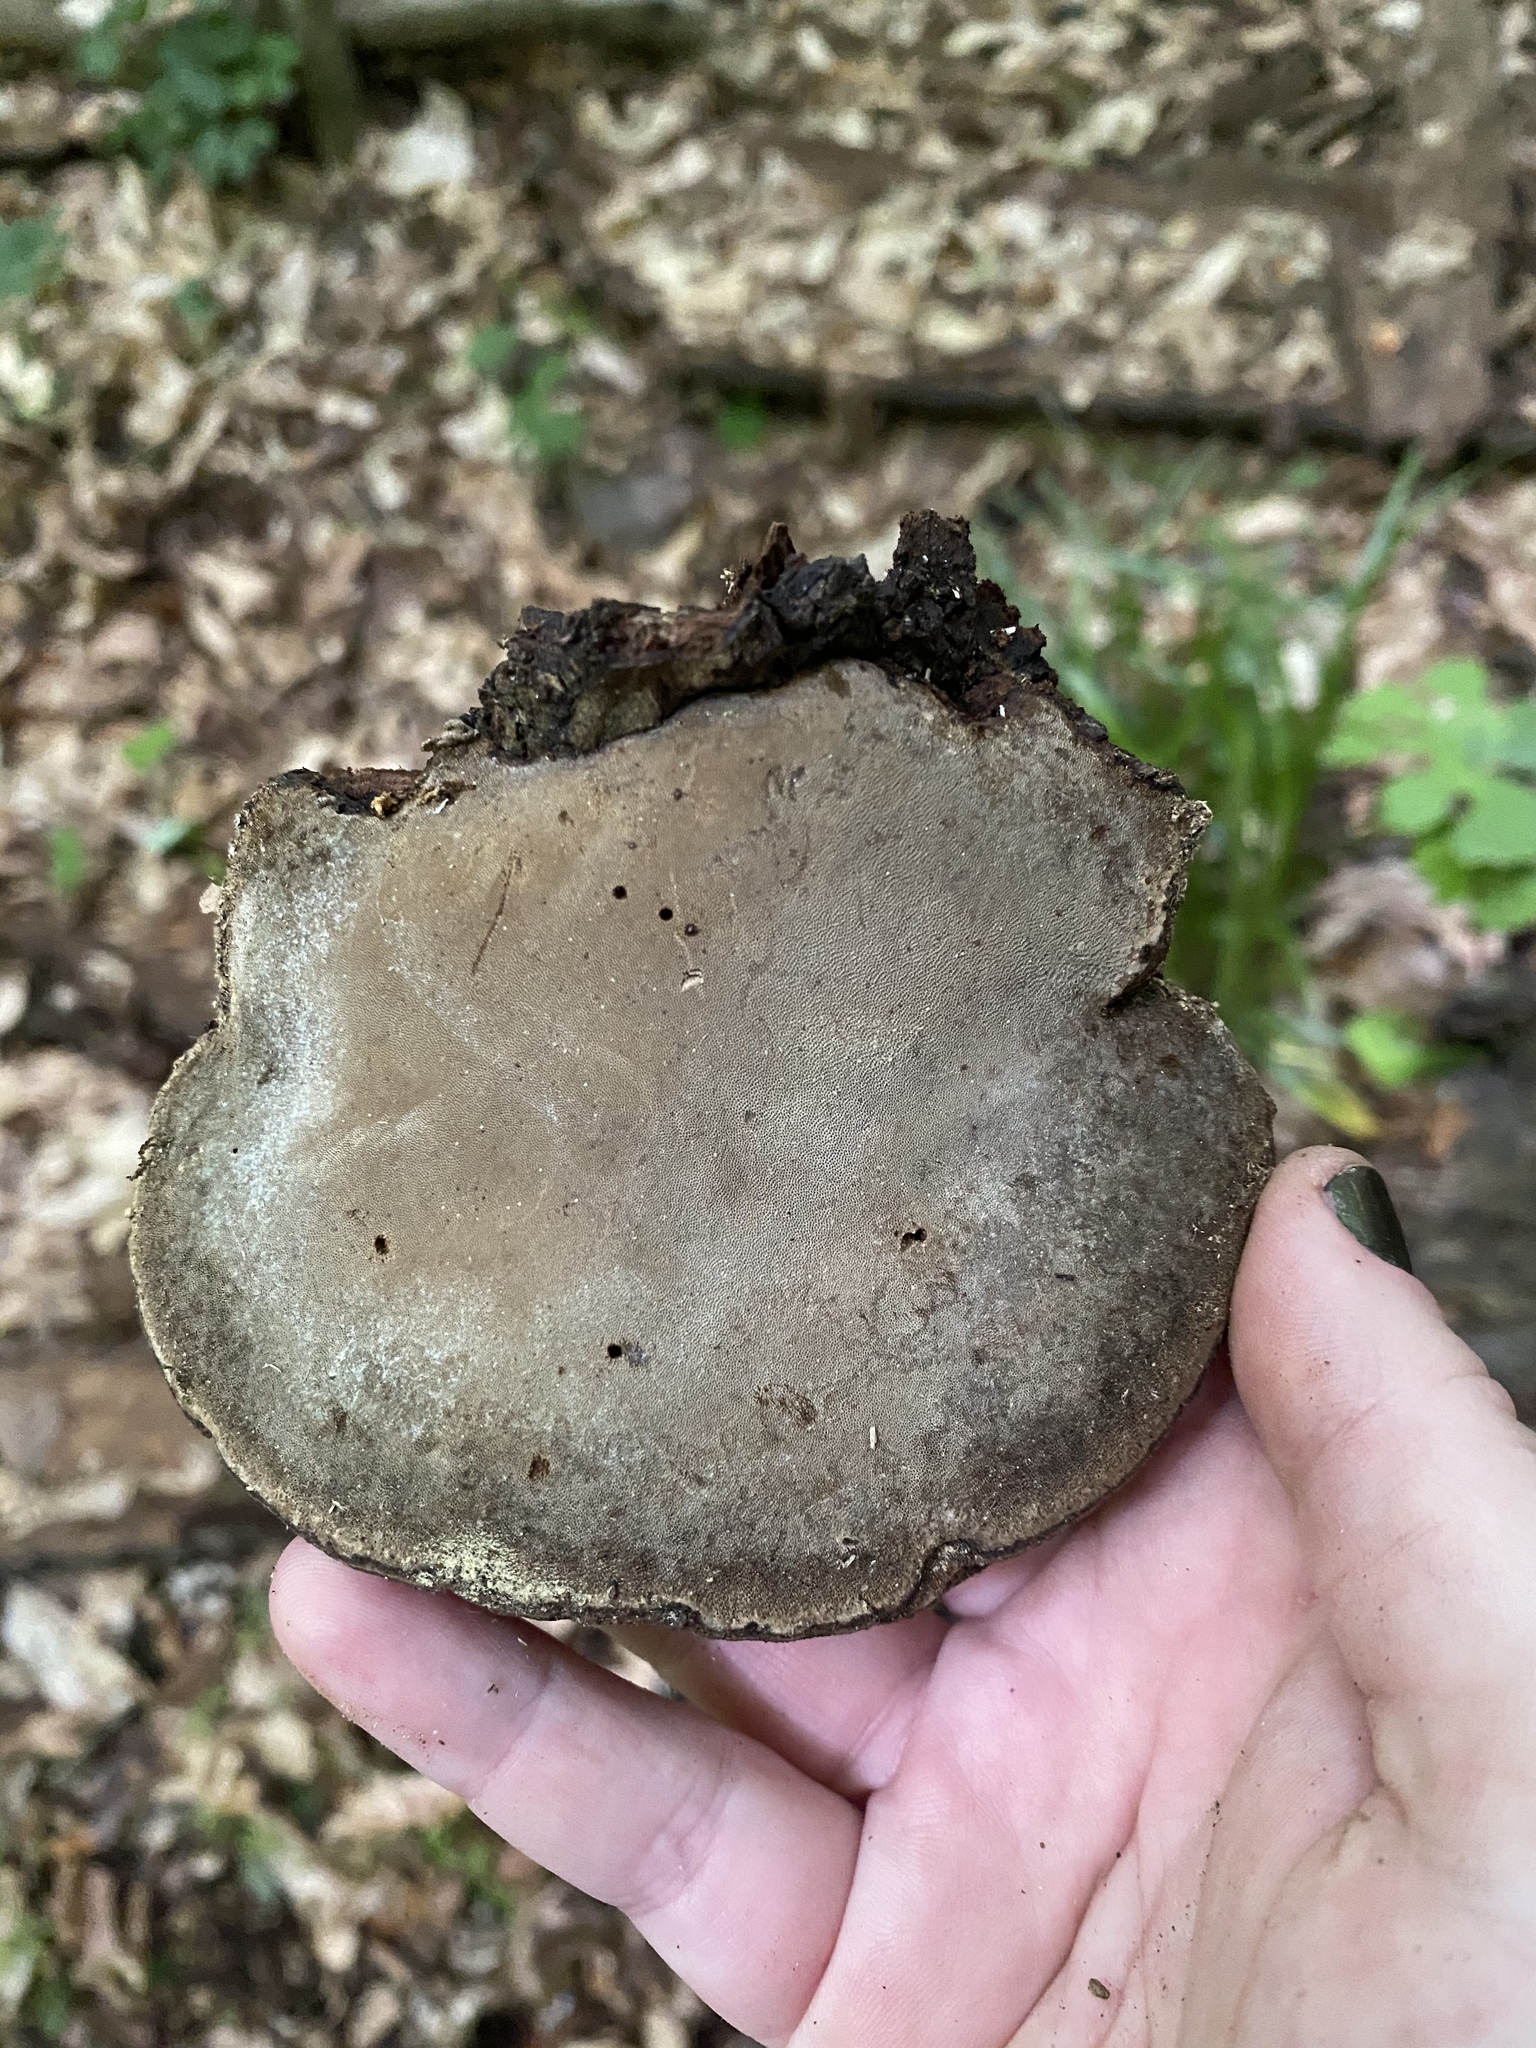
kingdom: Fungi
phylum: Basidiomycota
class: Agaricomycetes
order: Polyporales
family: Polyporaceae
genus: Fomes
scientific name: Fomes fasciatus
